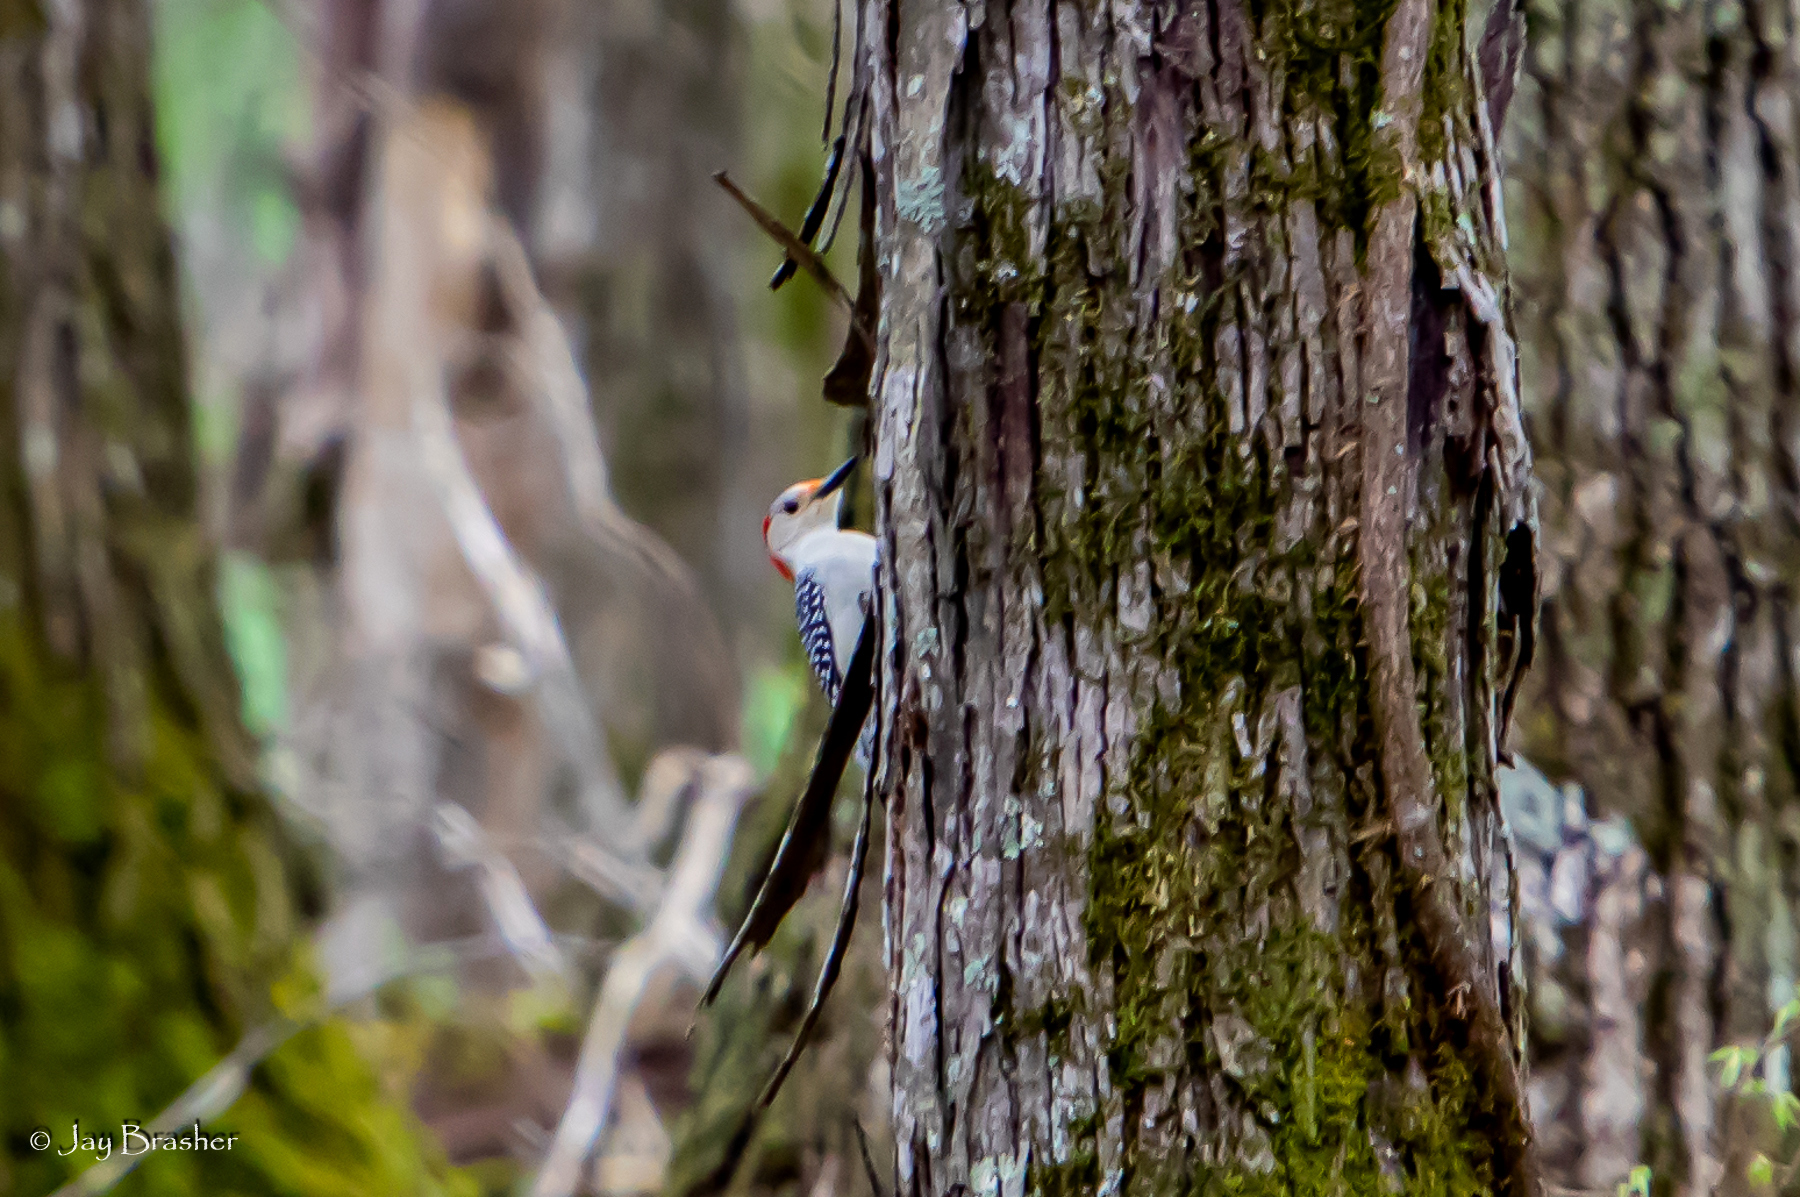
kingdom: Animalia
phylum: Chordata
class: Aves
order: Piciformes
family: Picidae
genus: Melanerpes
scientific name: Melanerpes carolinus
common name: Red-bellied woodpecker
